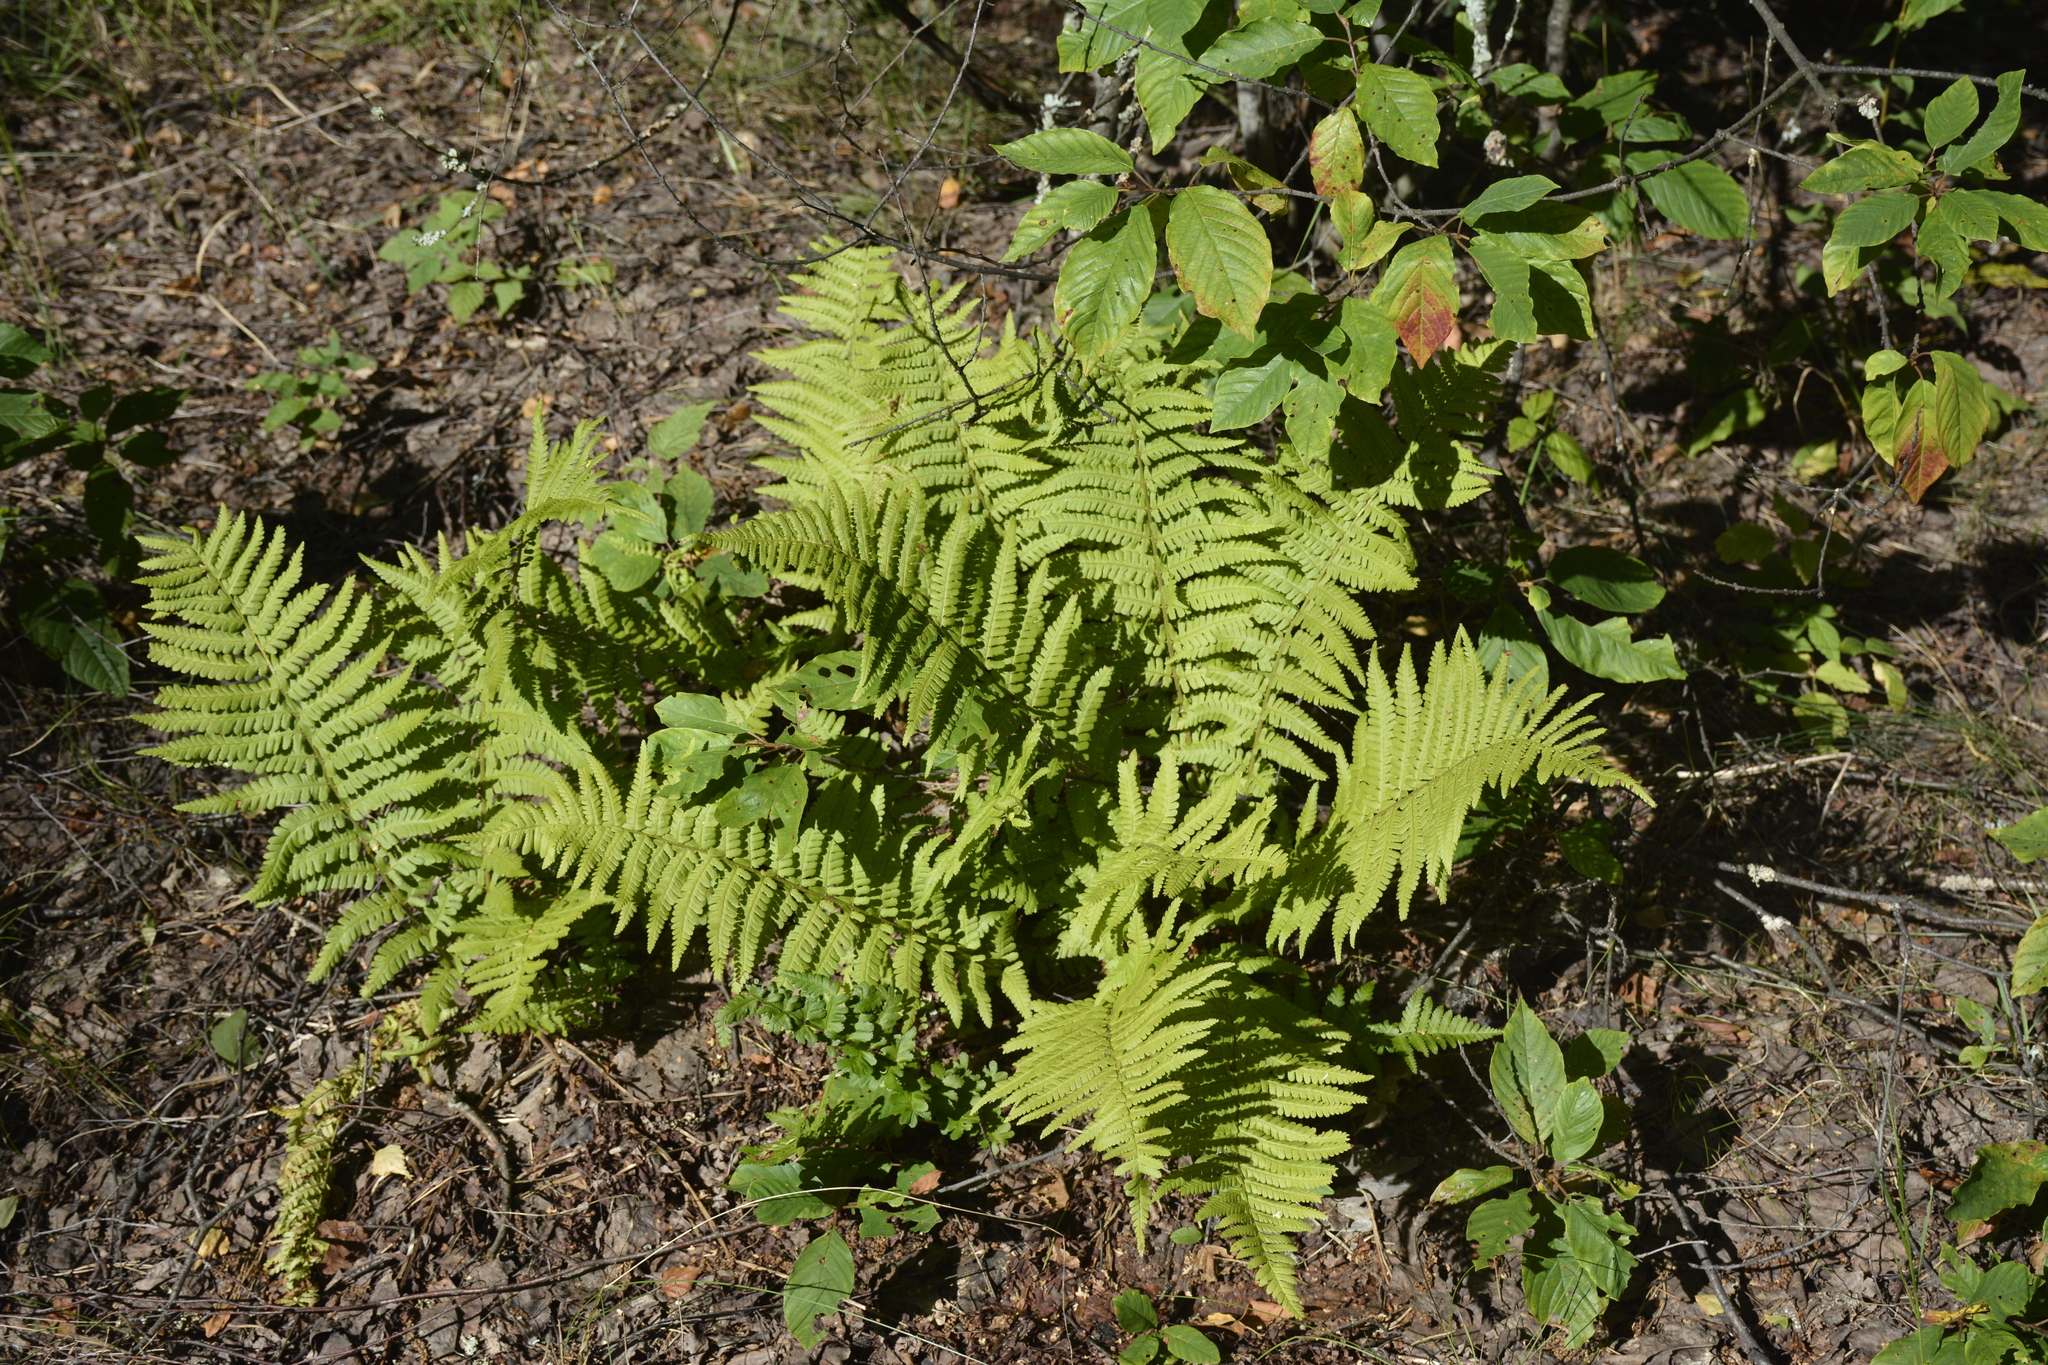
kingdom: Plantae
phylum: Tracheophyta
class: Polypodiopsida
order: Polypodiales
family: Dryopteridaceae
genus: Dryopteris
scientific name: Dryopteris filix-mas
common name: Male fern
